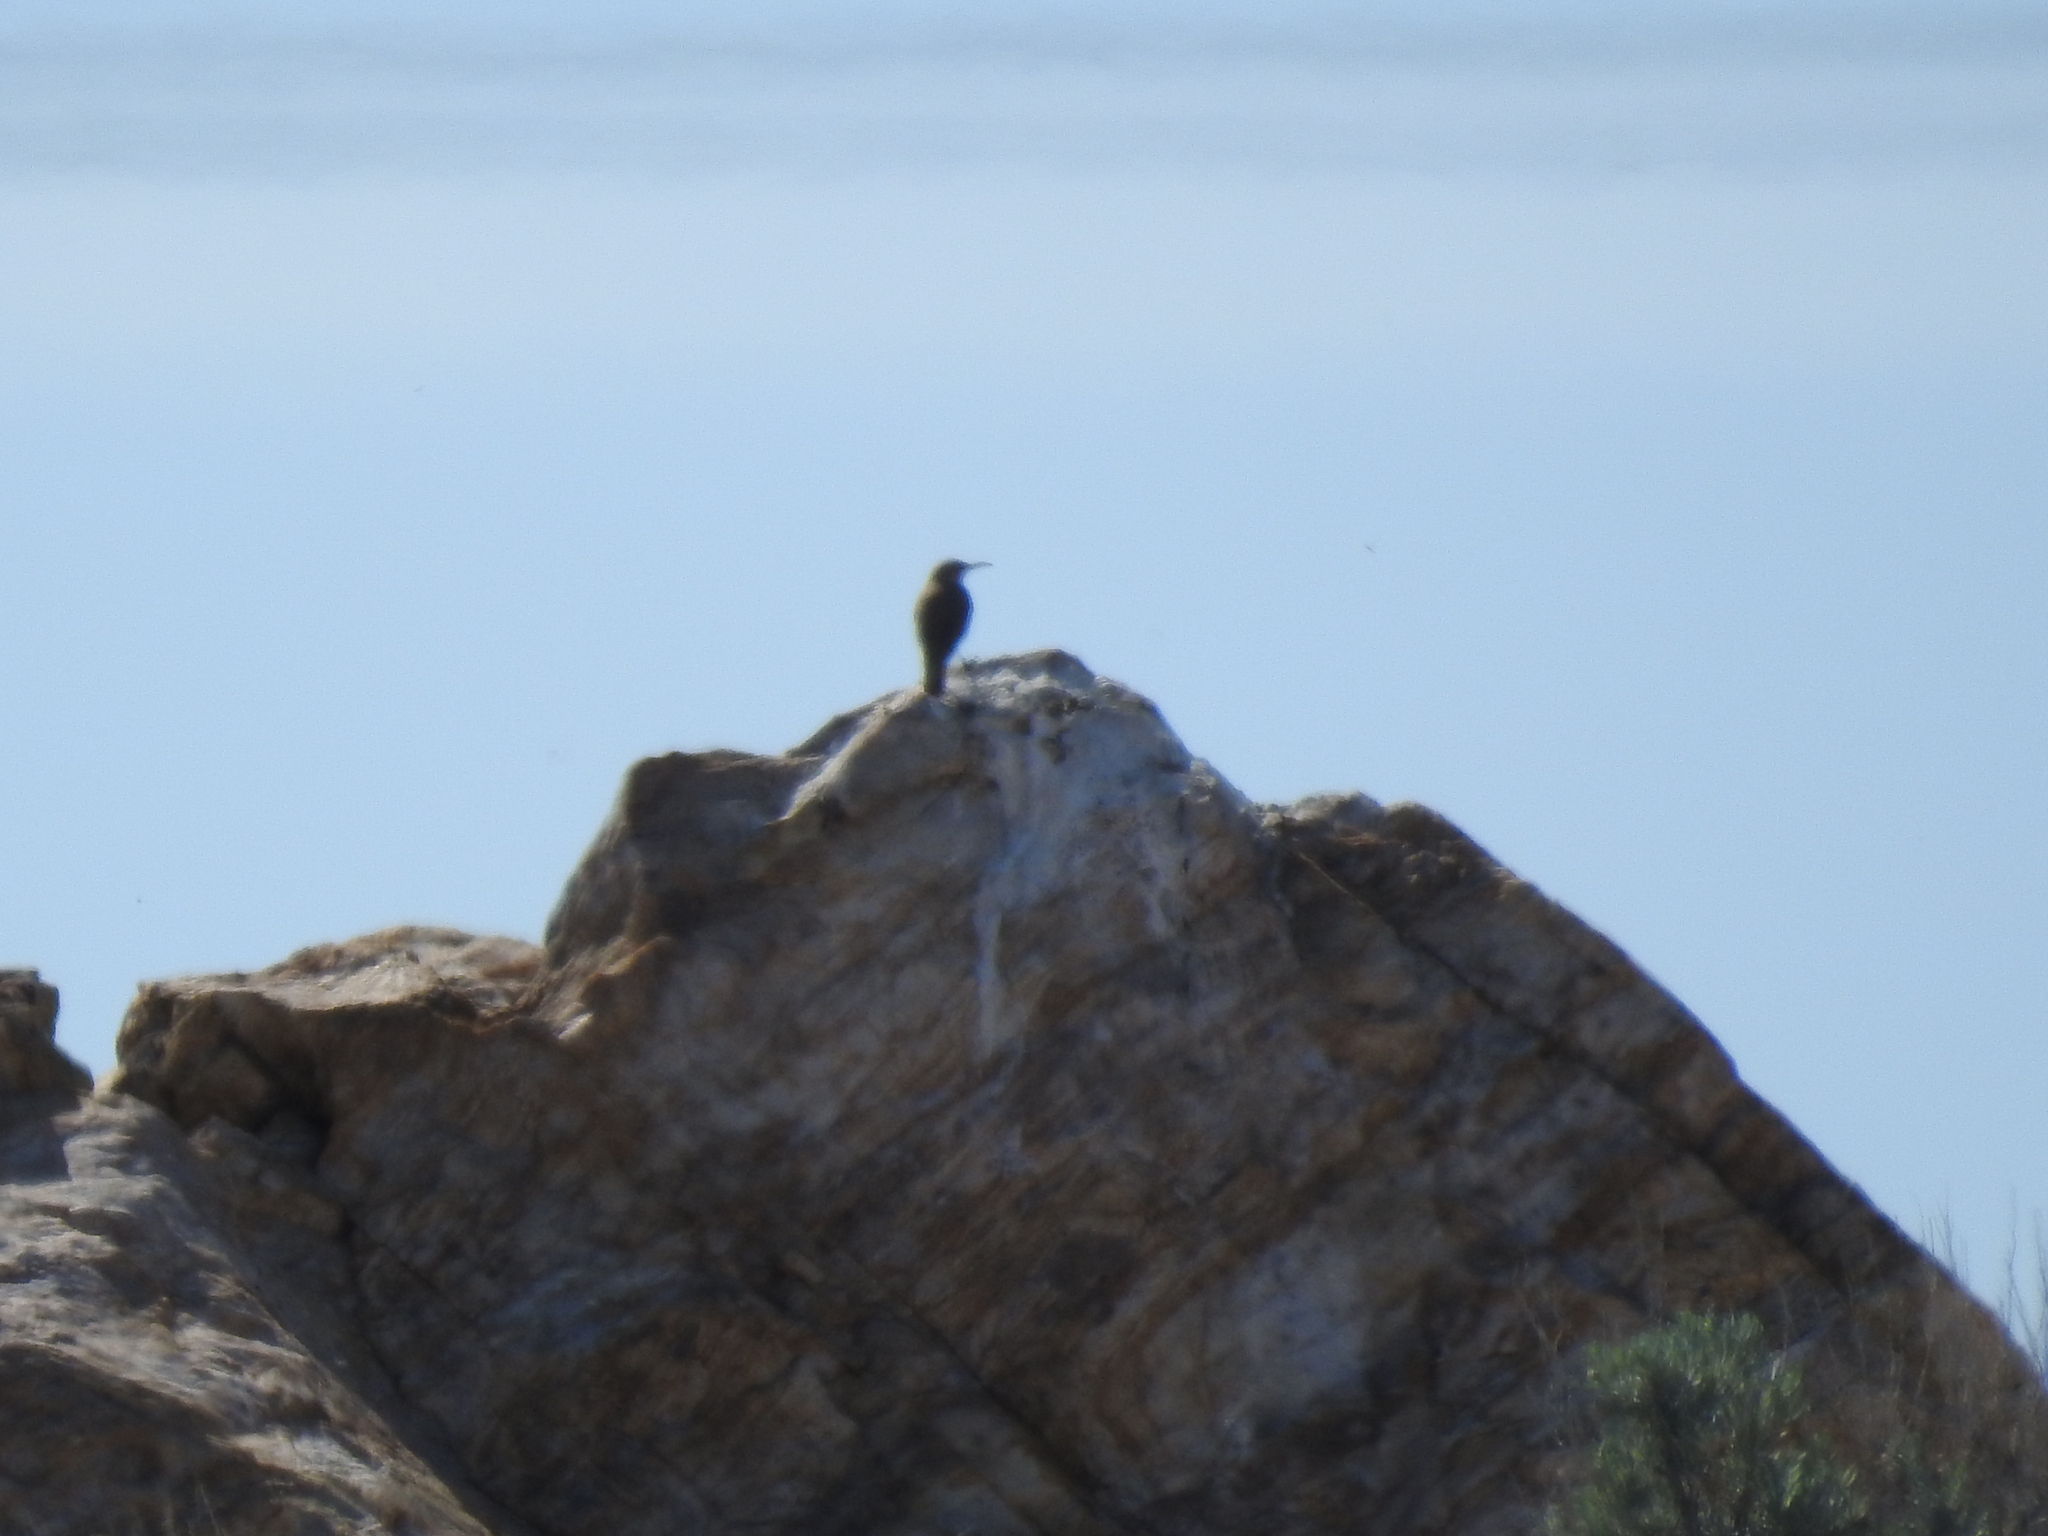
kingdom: Animalia
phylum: Chordata
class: Aves
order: Passeriformes
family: Troglodytidae
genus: Salpinctes
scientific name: Salpinctes obsoletus
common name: Rock wren
